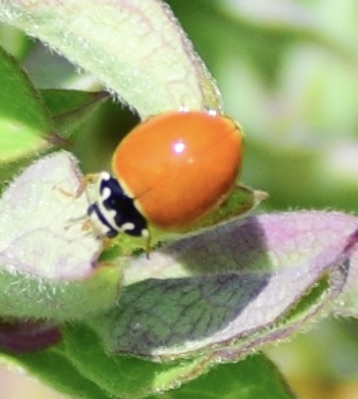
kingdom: Animalia
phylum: Arthropoda
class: Insecta
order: Coleoptera
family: Coccinellidae
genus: Cycloneda
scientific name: Cycloneda munda
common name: Polished lady beetle
